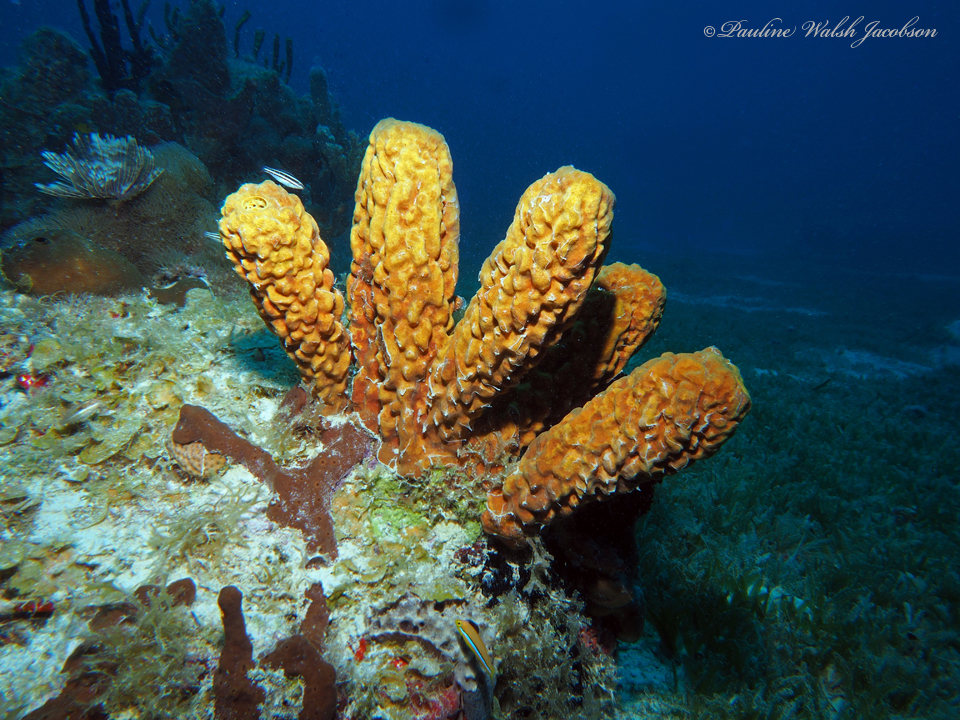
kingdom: Animalia
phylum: Porifera
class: Demospongiae
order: Verongiida
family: Aplysinidae
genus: Aplysina
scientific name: Aplysina fistularis
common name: Candle sponge
